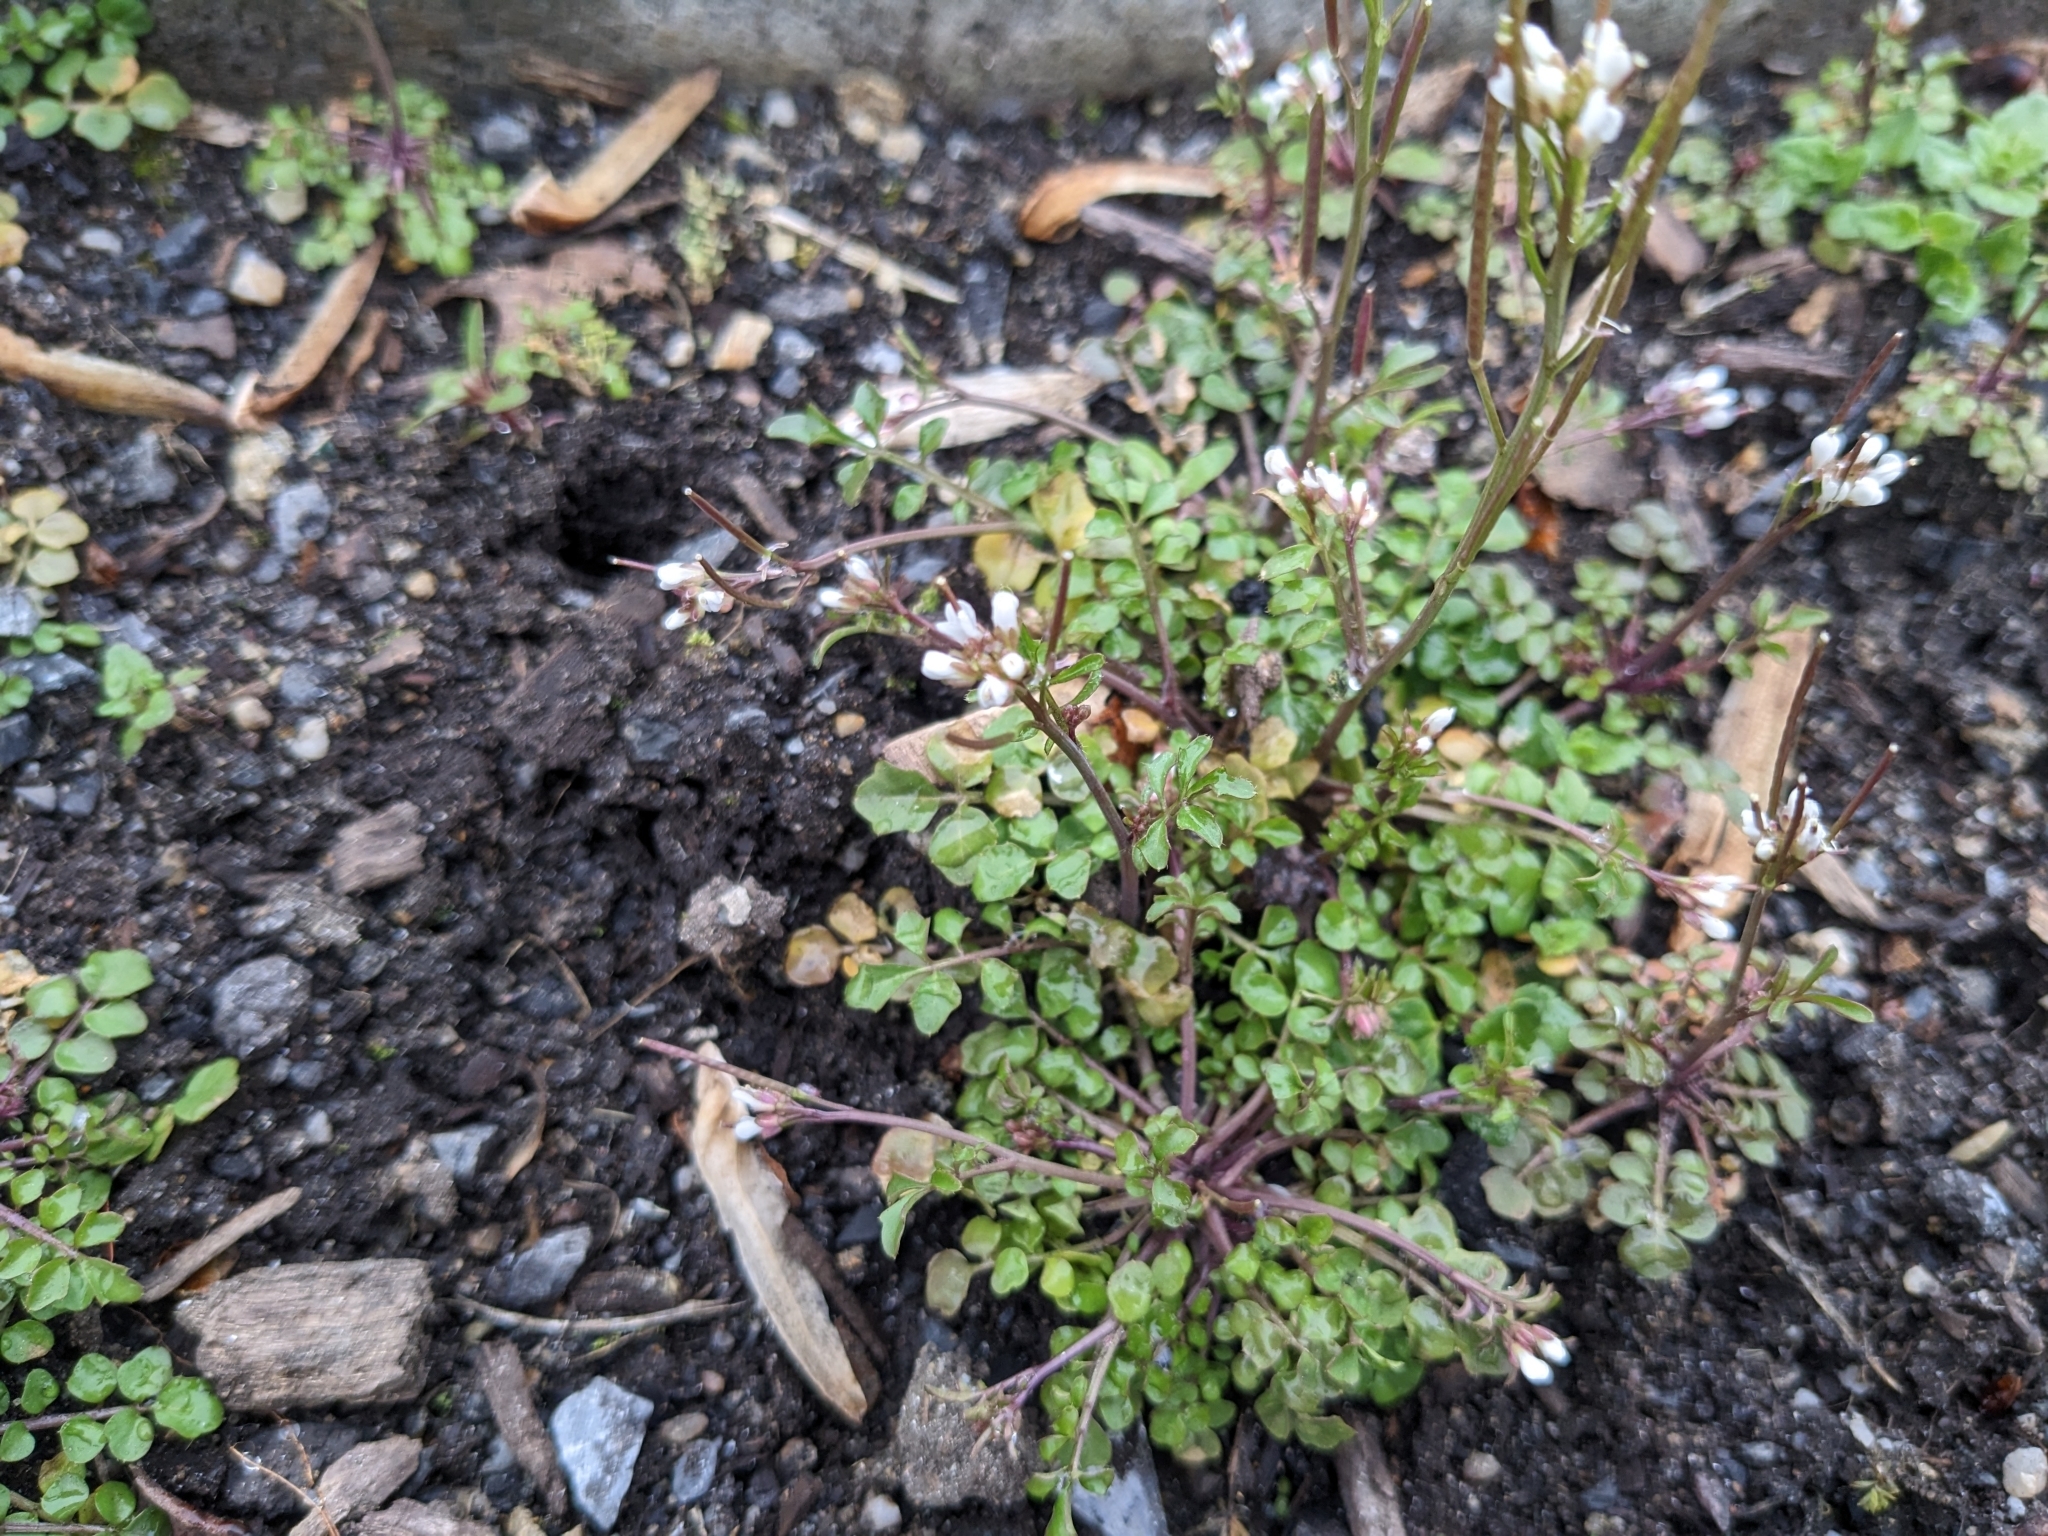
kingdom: Plantae
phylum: Tracheophyta
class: Magnoliopsida
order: Brassicales
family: Brassicaceae
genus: Cardamine
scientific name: Cardamine hirsuta
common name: Hairy bittercress
